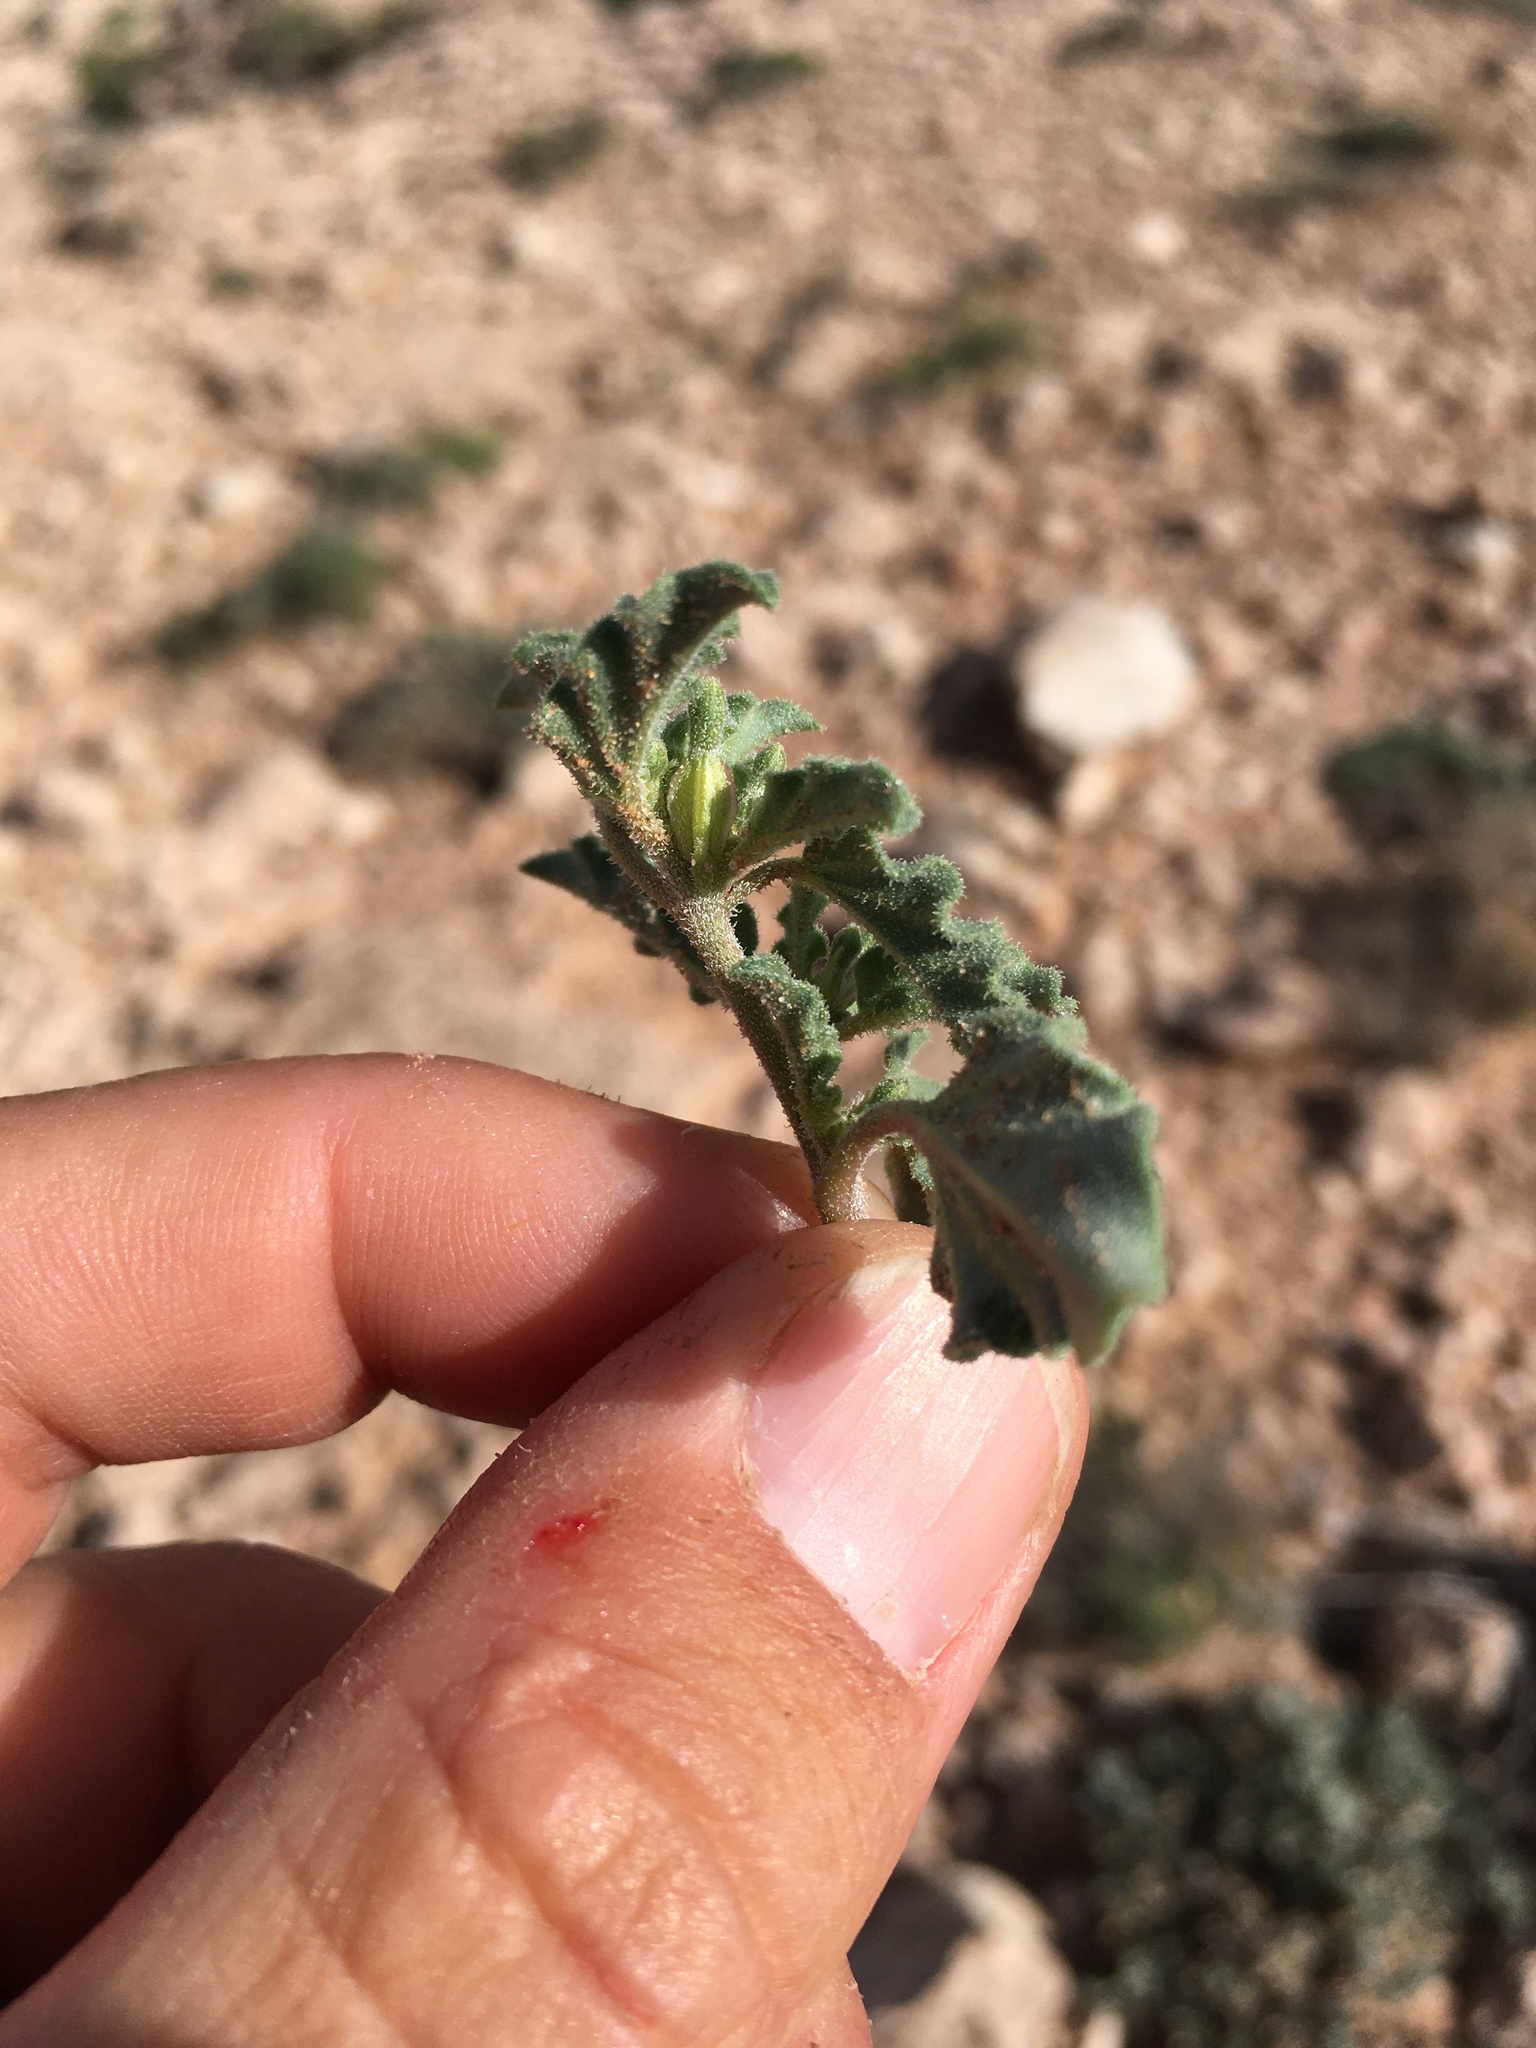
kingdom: Plantae
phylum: Tracheophyta
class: Magnoliopsida
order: Caryophyllales
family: Nyctaginaceae
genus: Acleisanthes
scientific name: Acleisanthes diffusa
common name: Spreading moonpod
